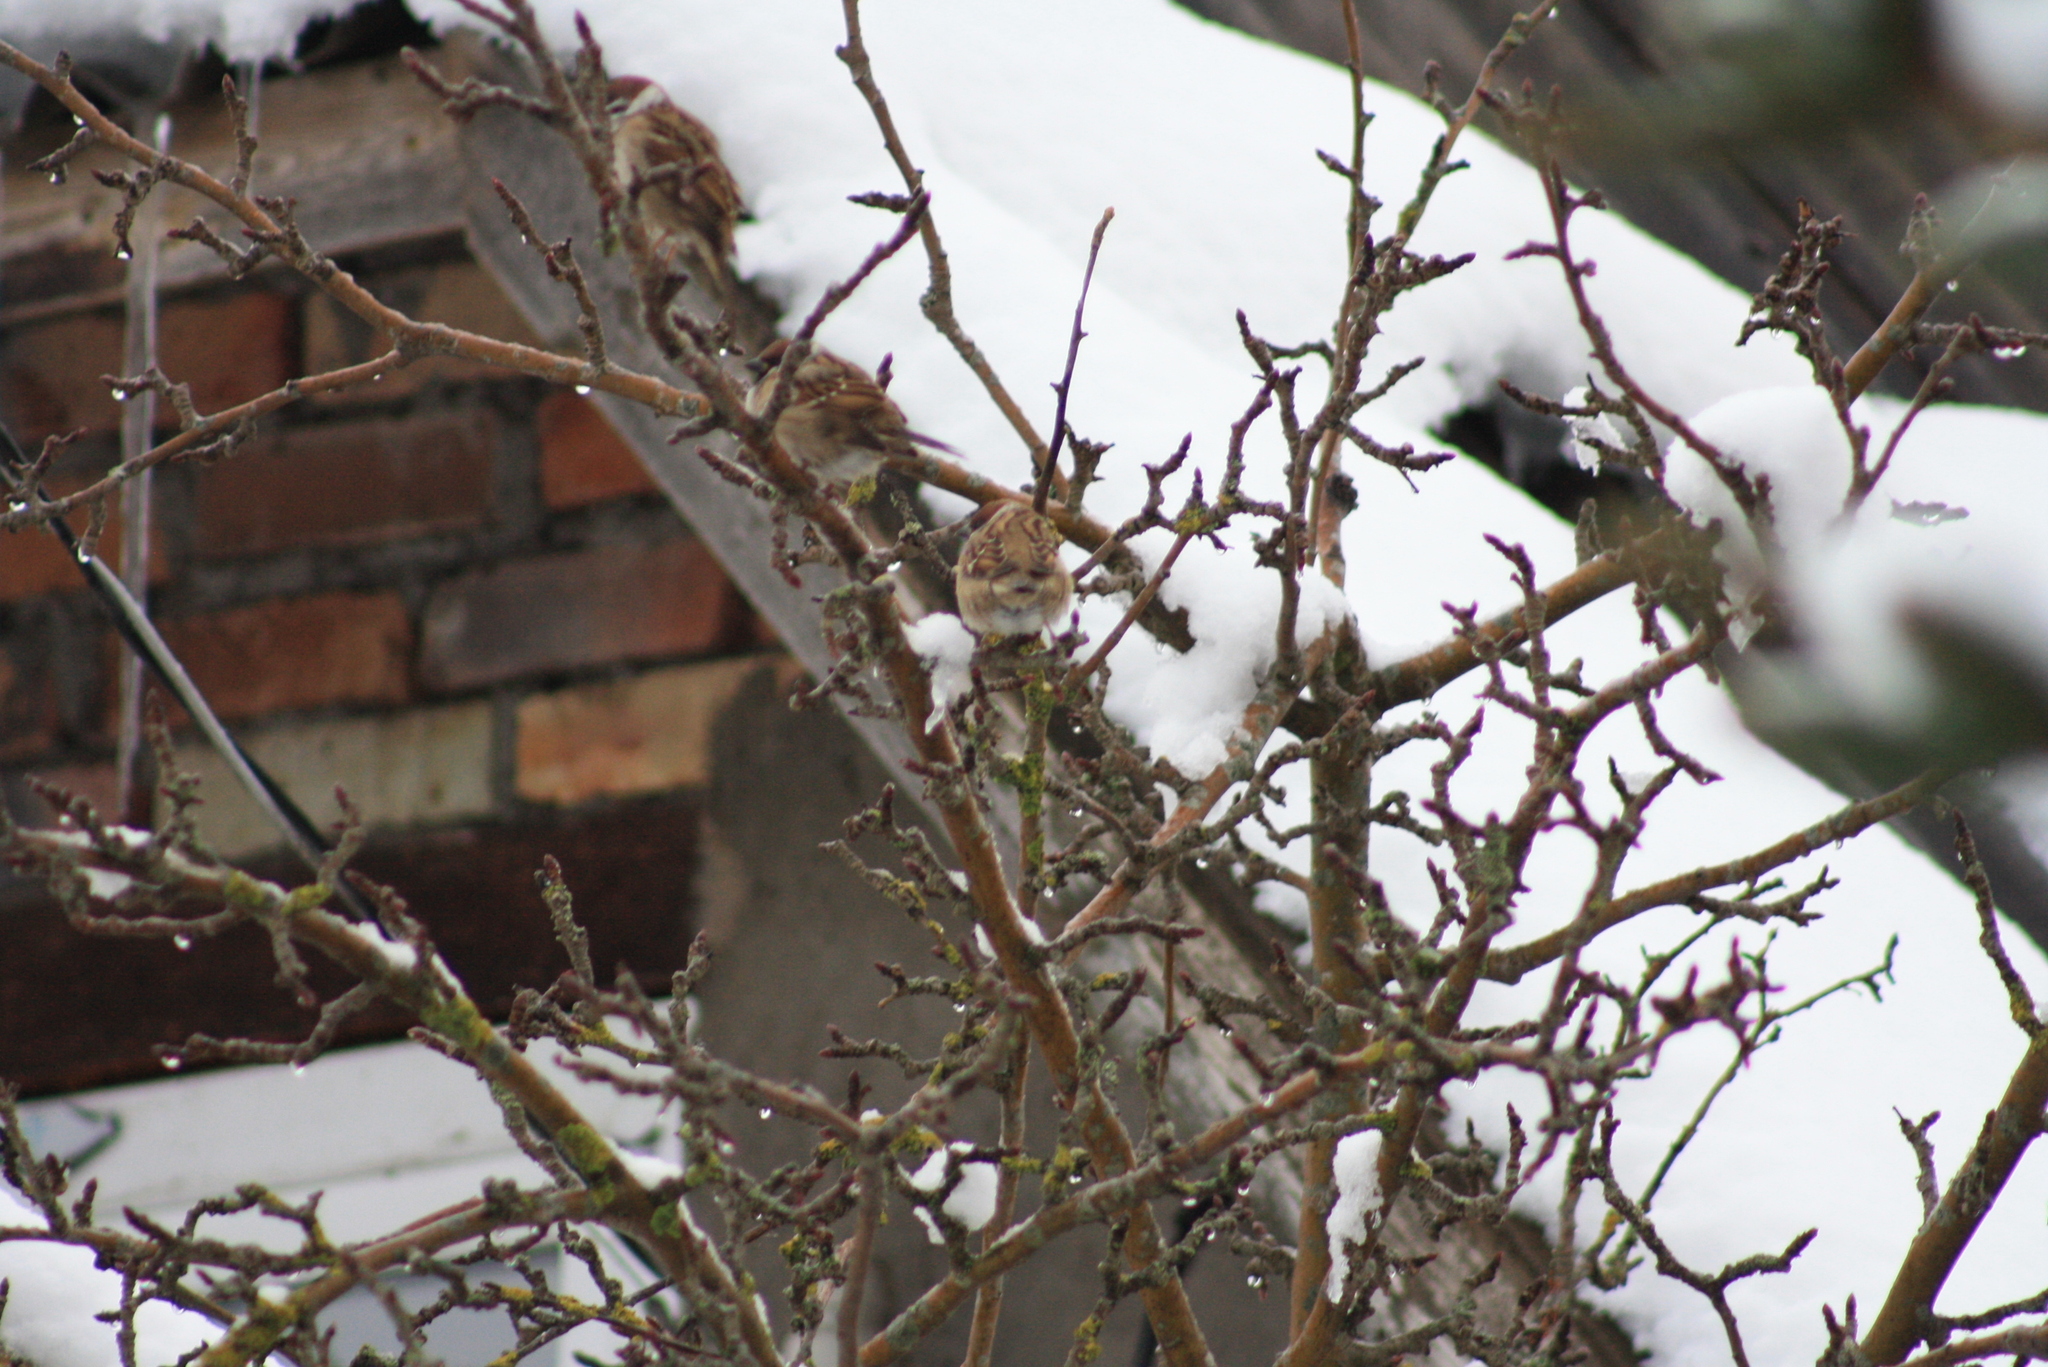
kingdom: Animalia
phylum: Chordata
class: Aves
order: Passeriformes
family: Passeridae
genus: Passer
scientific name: Passer montanus
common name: Eurasian tree sparrow
